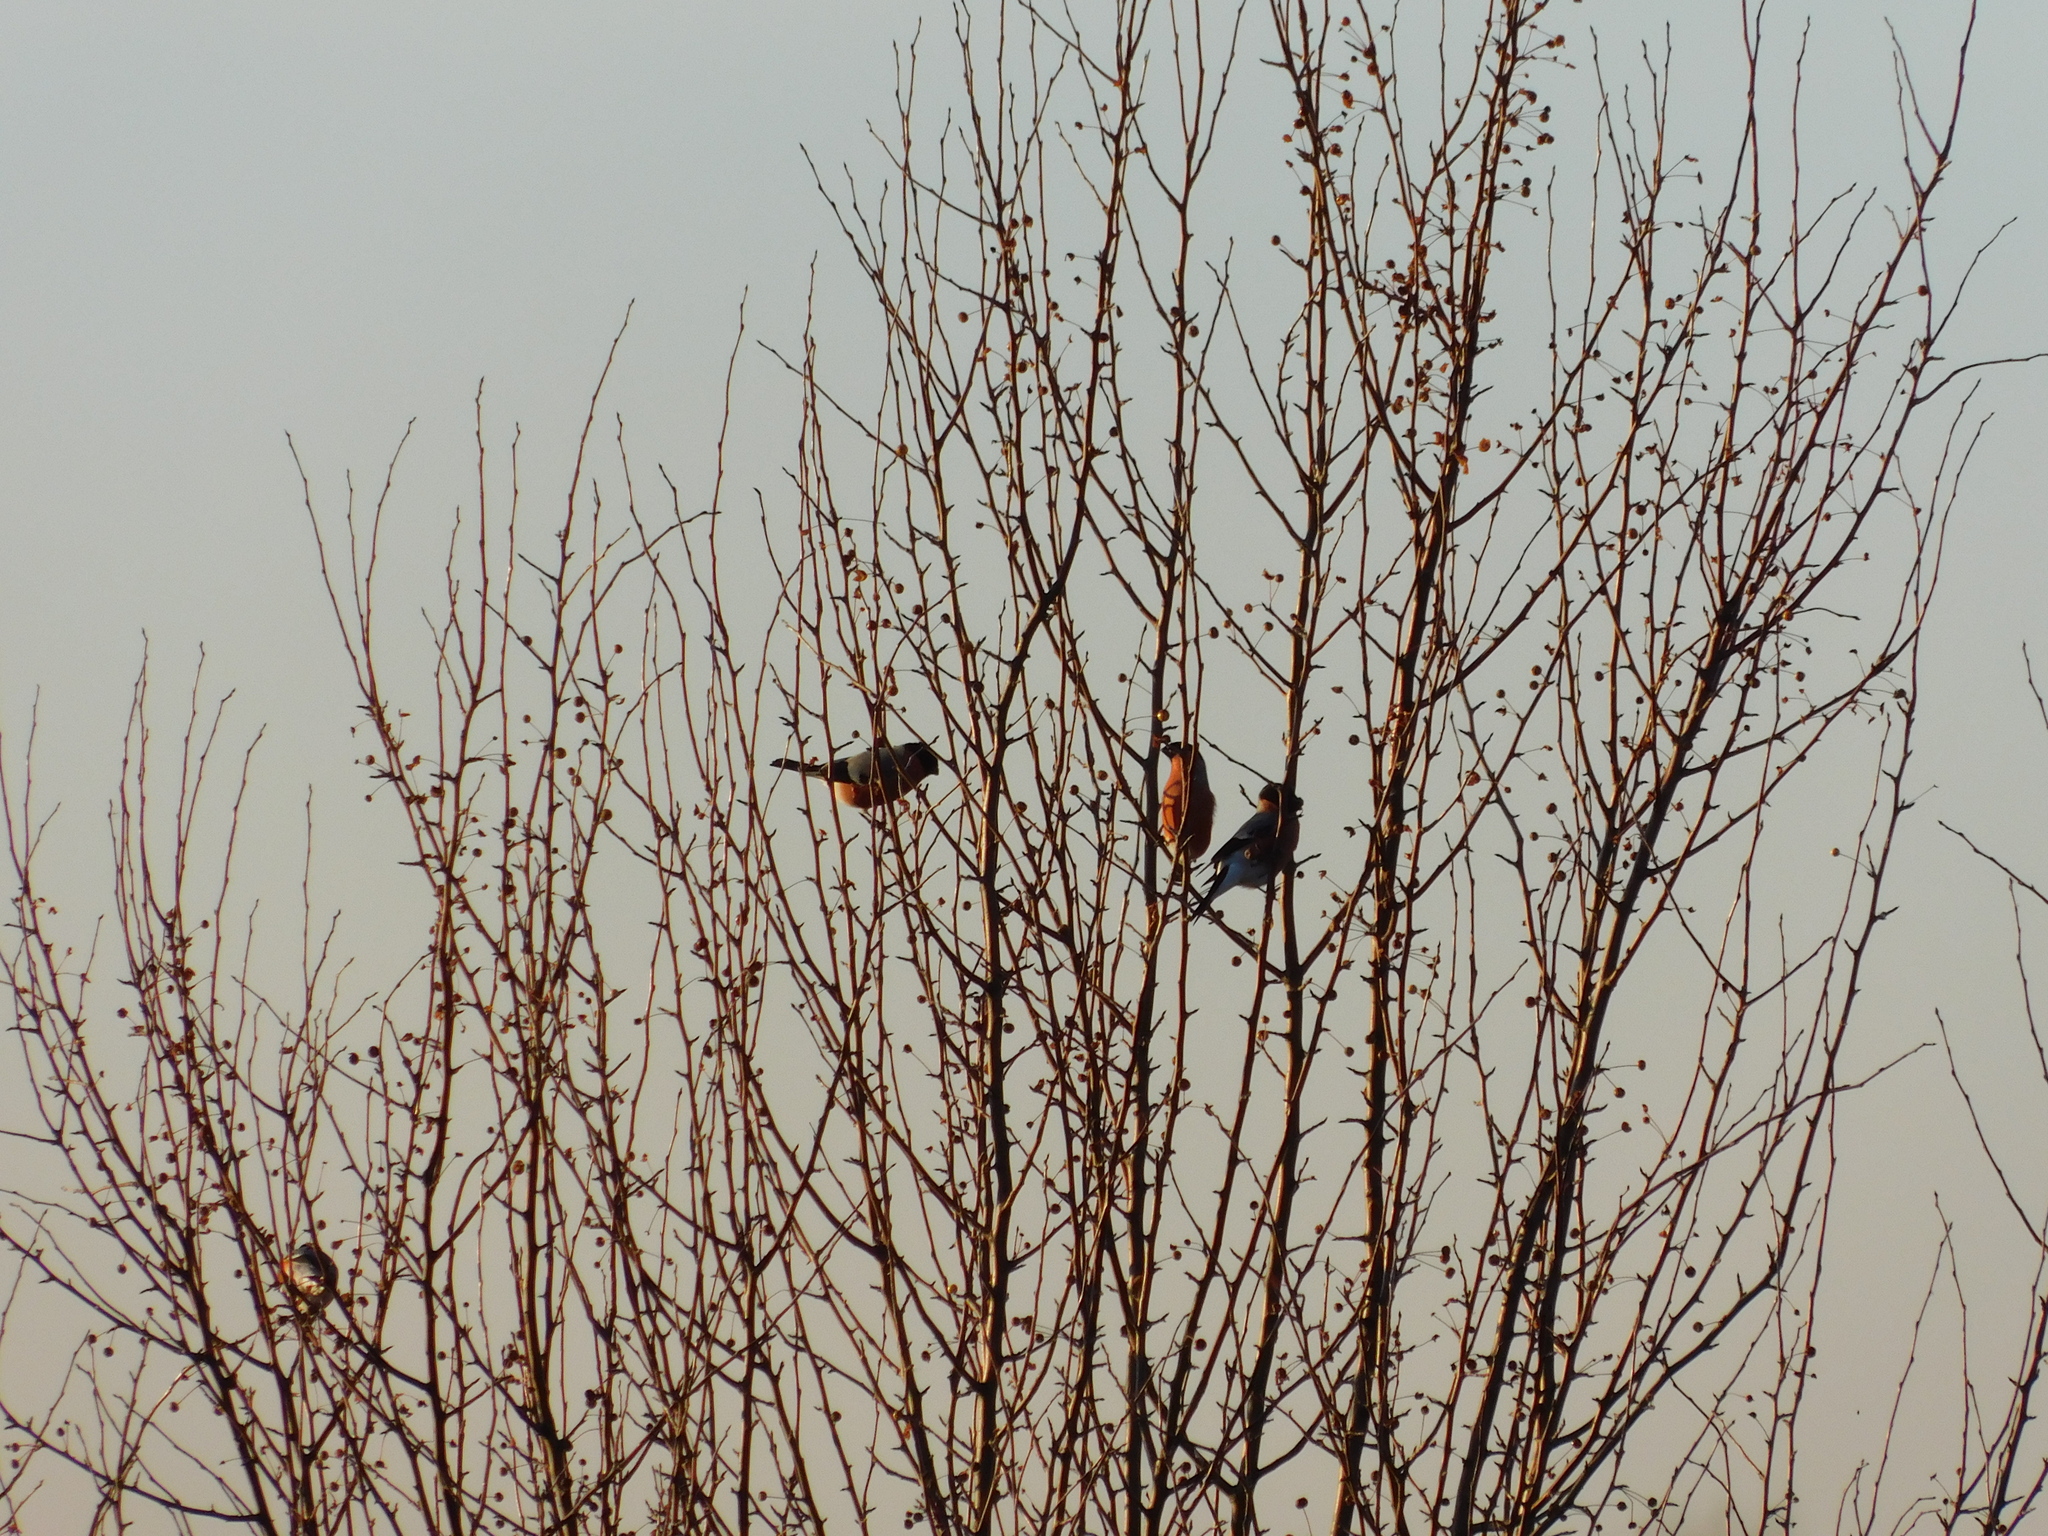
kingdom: Animalia
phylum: Chordata
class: Aves
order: Passeriformes
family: Fringillidae
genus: Pyrrhula
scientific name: Pyrrhula pyrrhula
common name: Eurasian bullfinch
